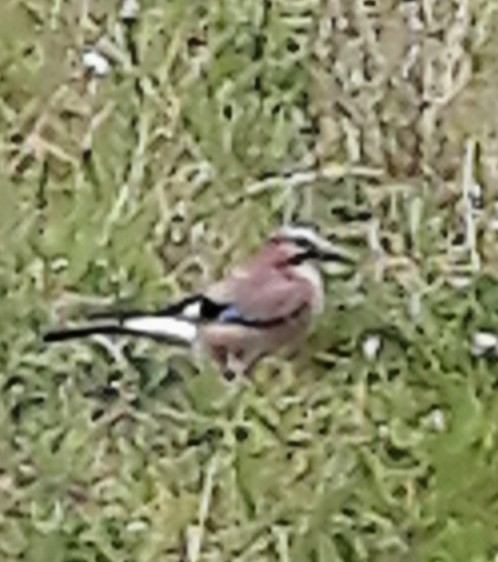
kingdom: Animalia
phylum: Chordata
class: Aves
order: Passeriformes
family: Corvidae
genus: Garrulus
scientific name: Garrulus glandarius
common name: Eurasian jay
